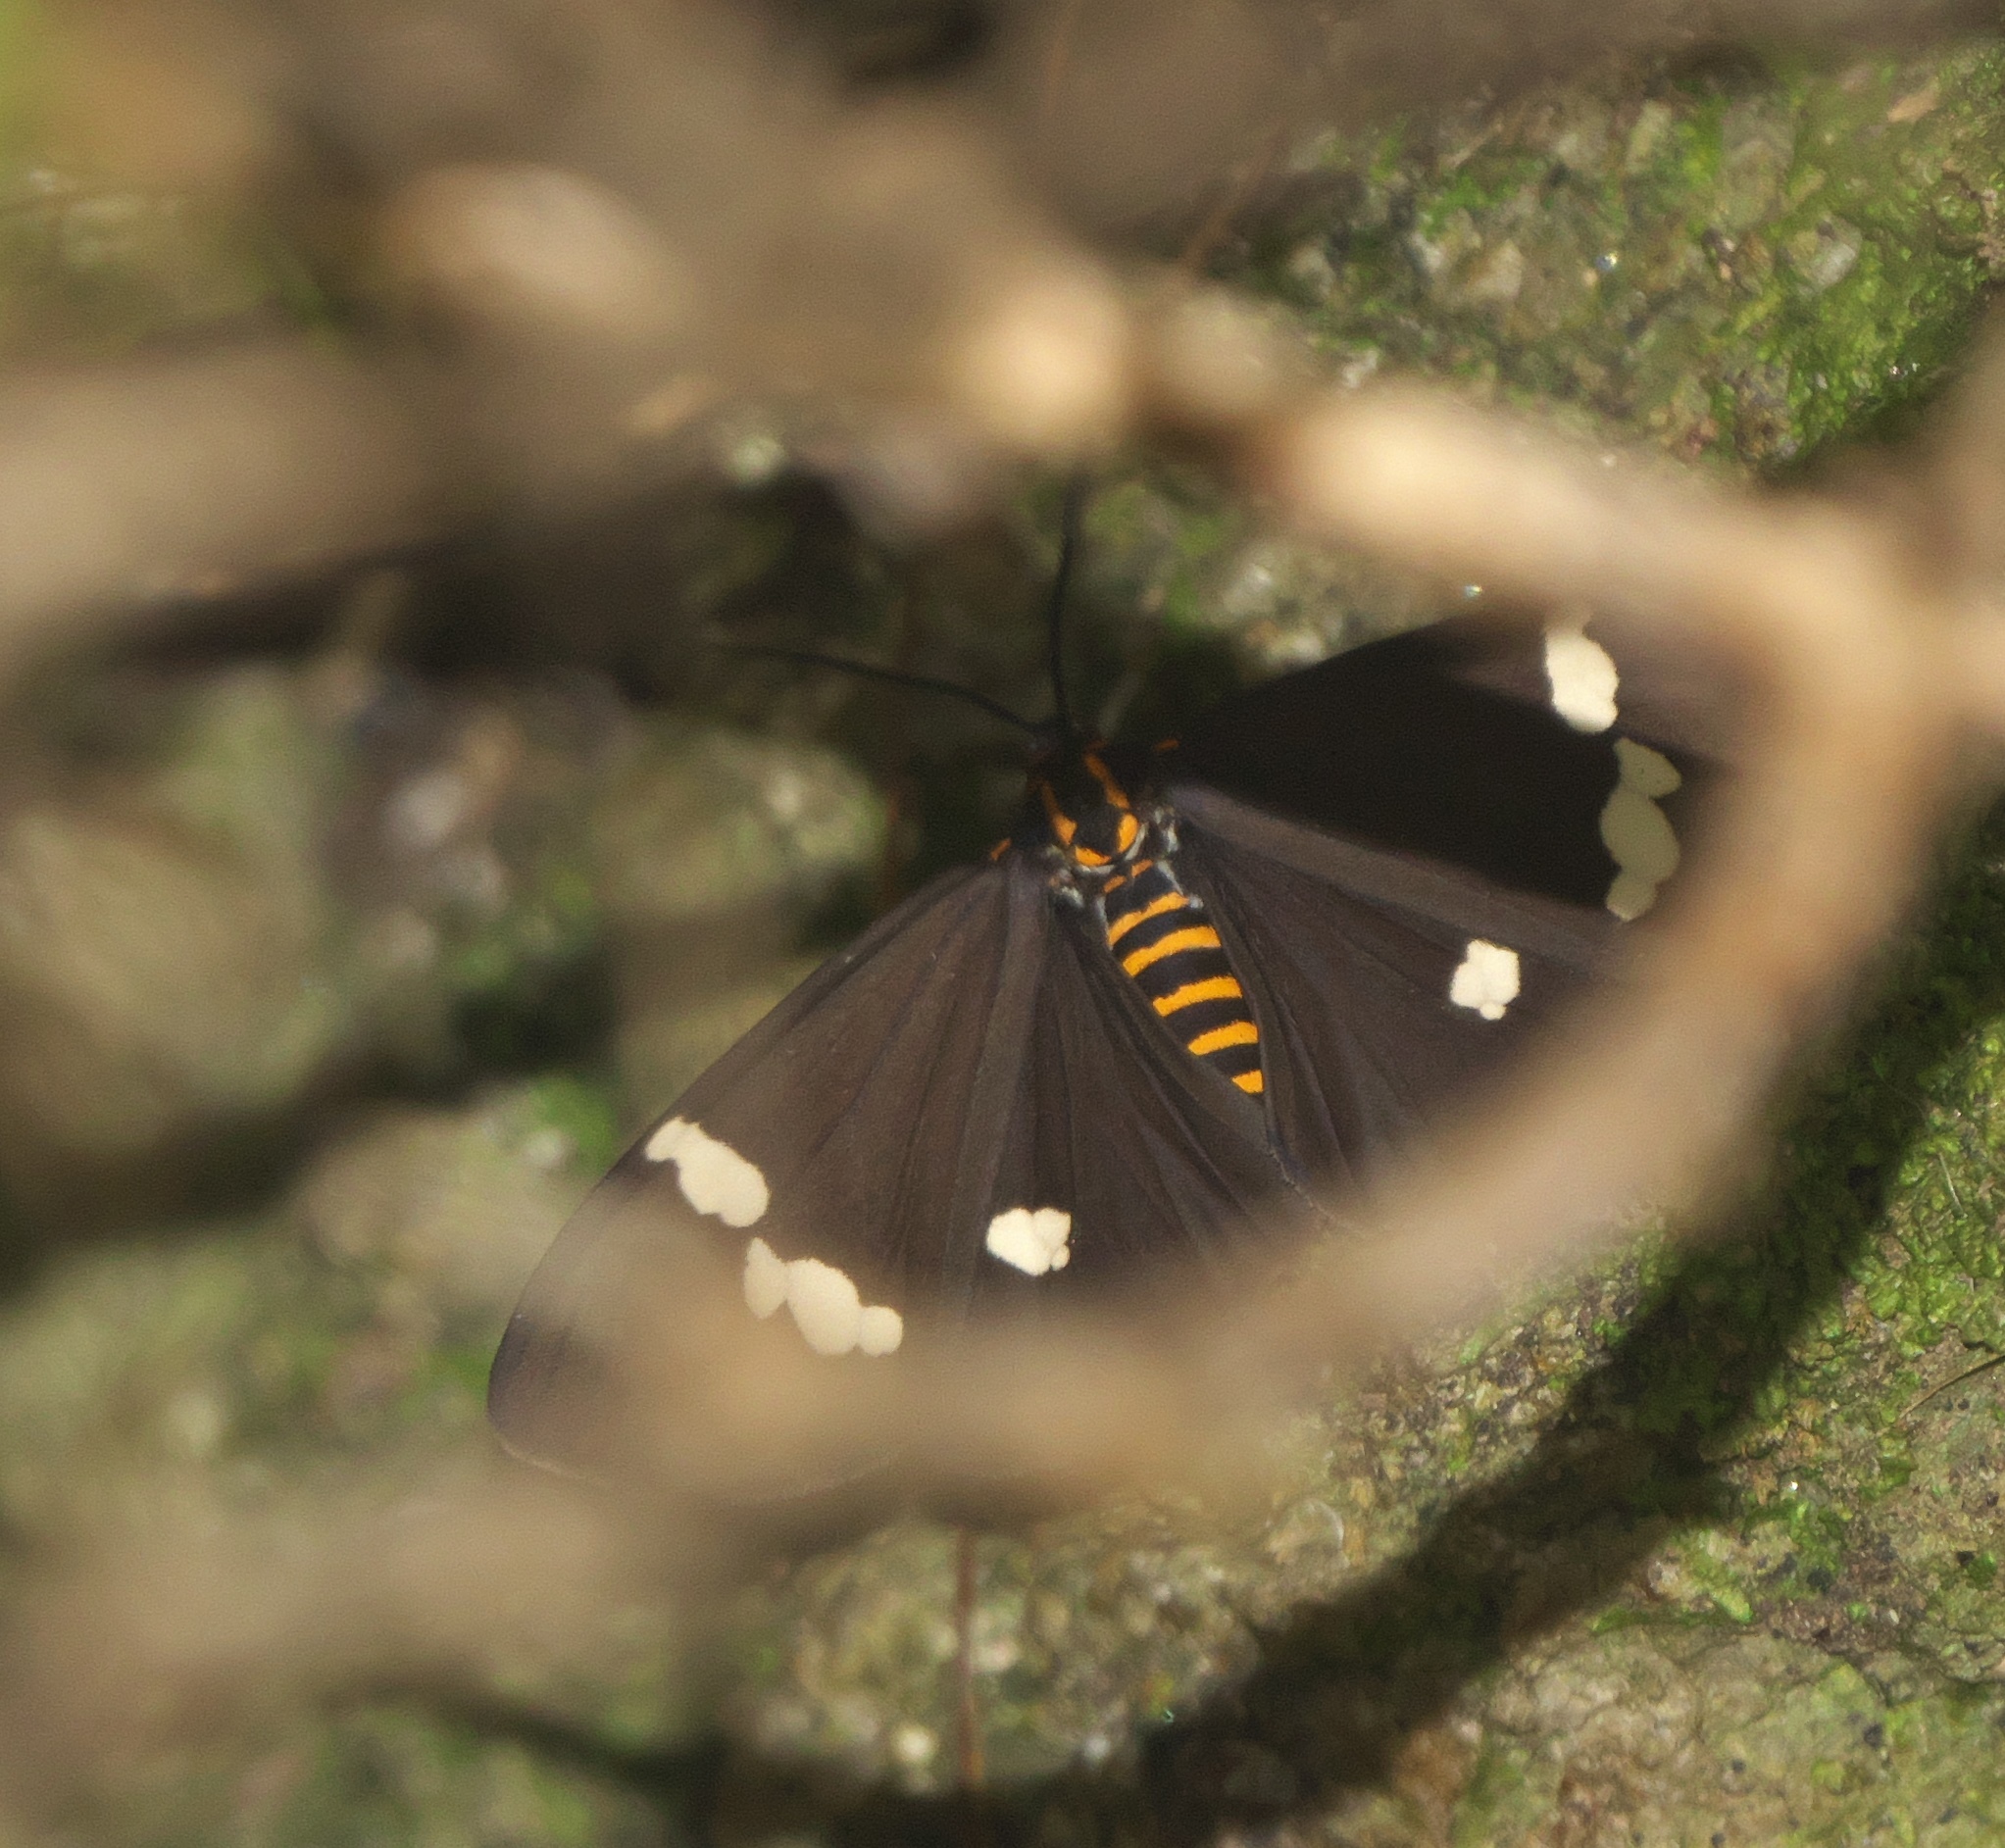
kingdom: Animalia
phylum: Arthropoda
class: Insecta
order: Lepidoptera
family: Erebidae
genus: Nyctemera
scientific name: Nyctemera annulatum
